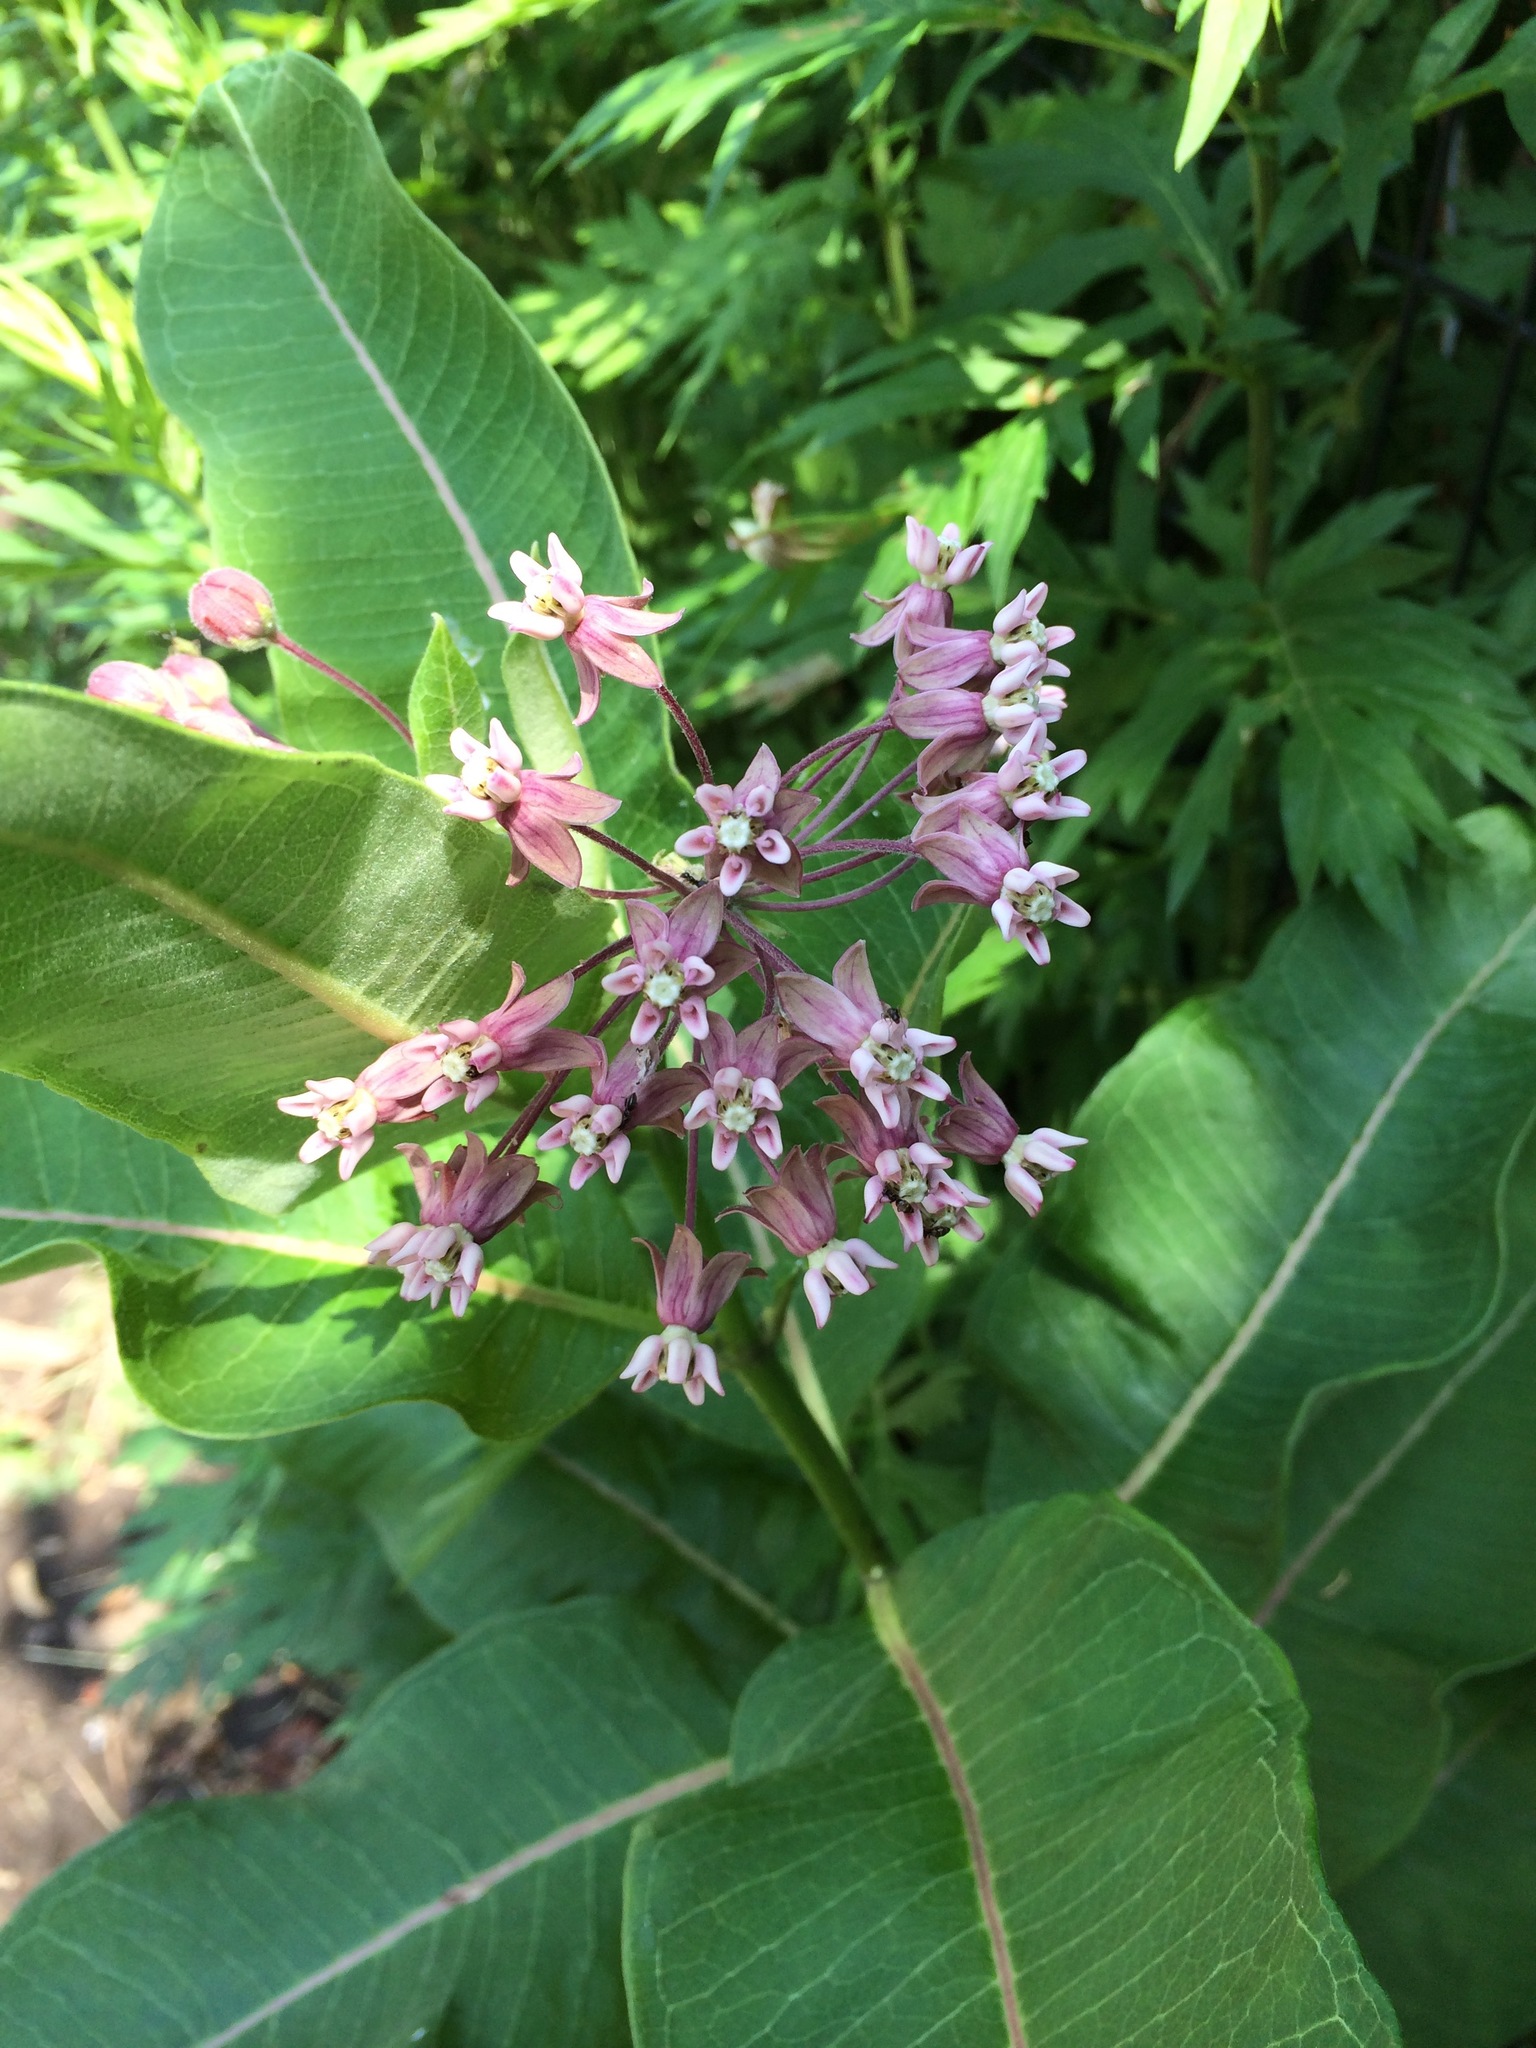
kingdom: Plantae
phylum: Tracheophyta
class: Magnoliopsida
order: Gentianales
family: Apocynaceae
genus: Asclepias
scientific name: Asclepias syriaca
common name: Common milkweed
